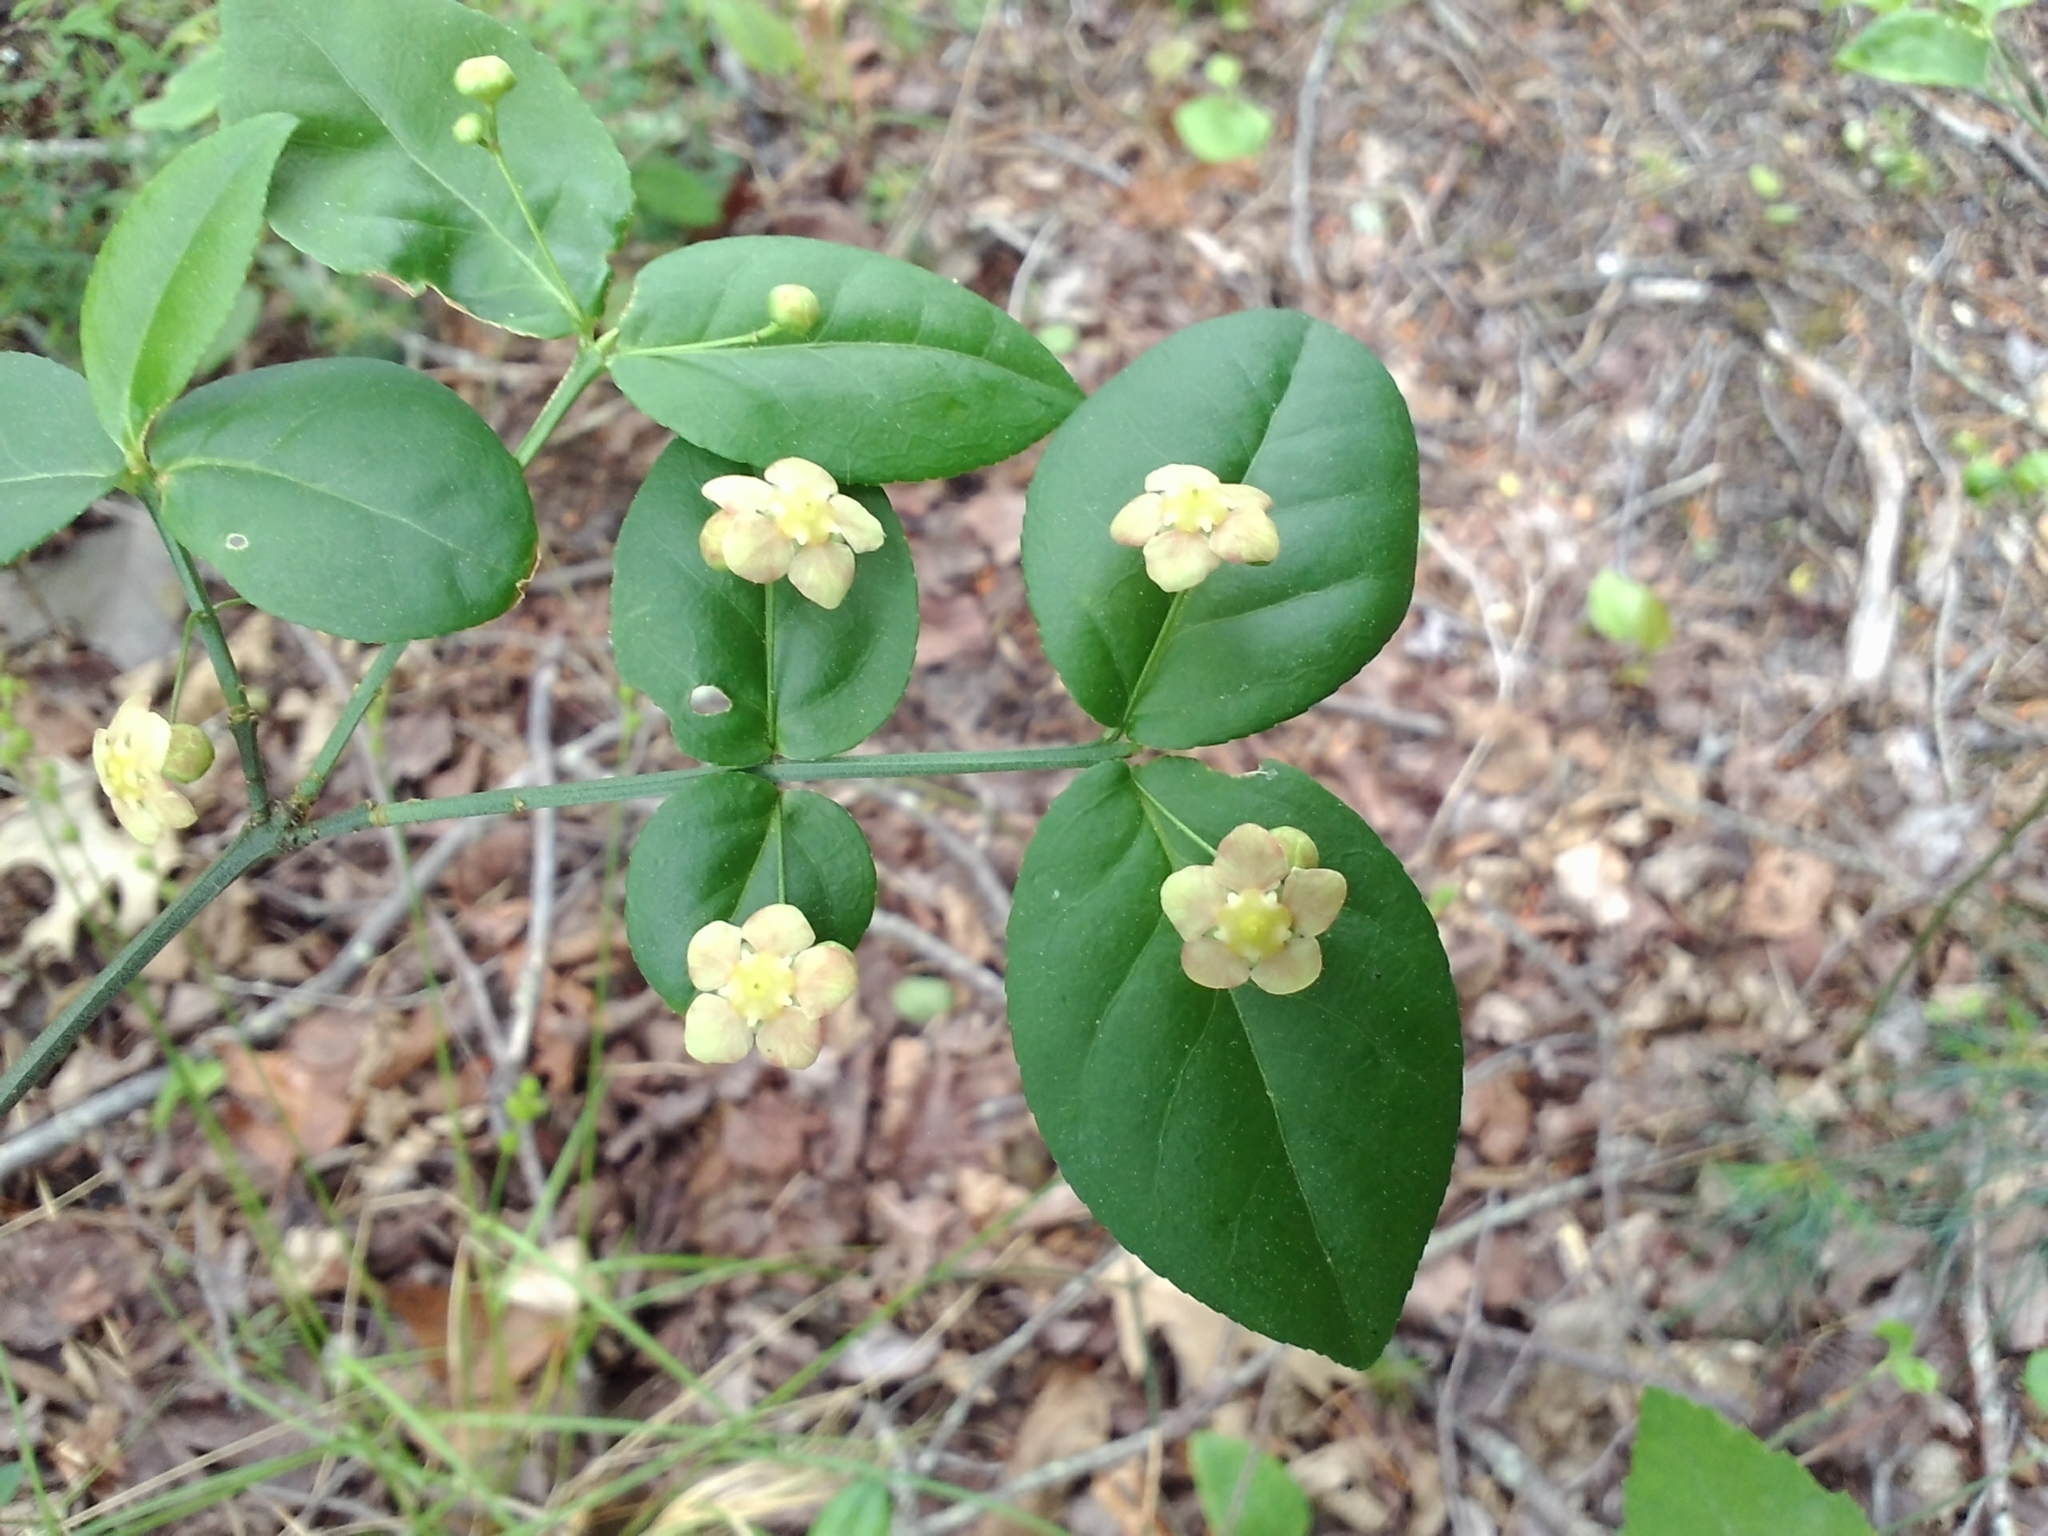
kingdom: Plantae
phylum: Tracheophyta
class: Magnoliopsida
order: Celastrales
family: Celastraceae
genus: Euonymus
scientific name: Euonymus americanus
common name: Bursting-heart
